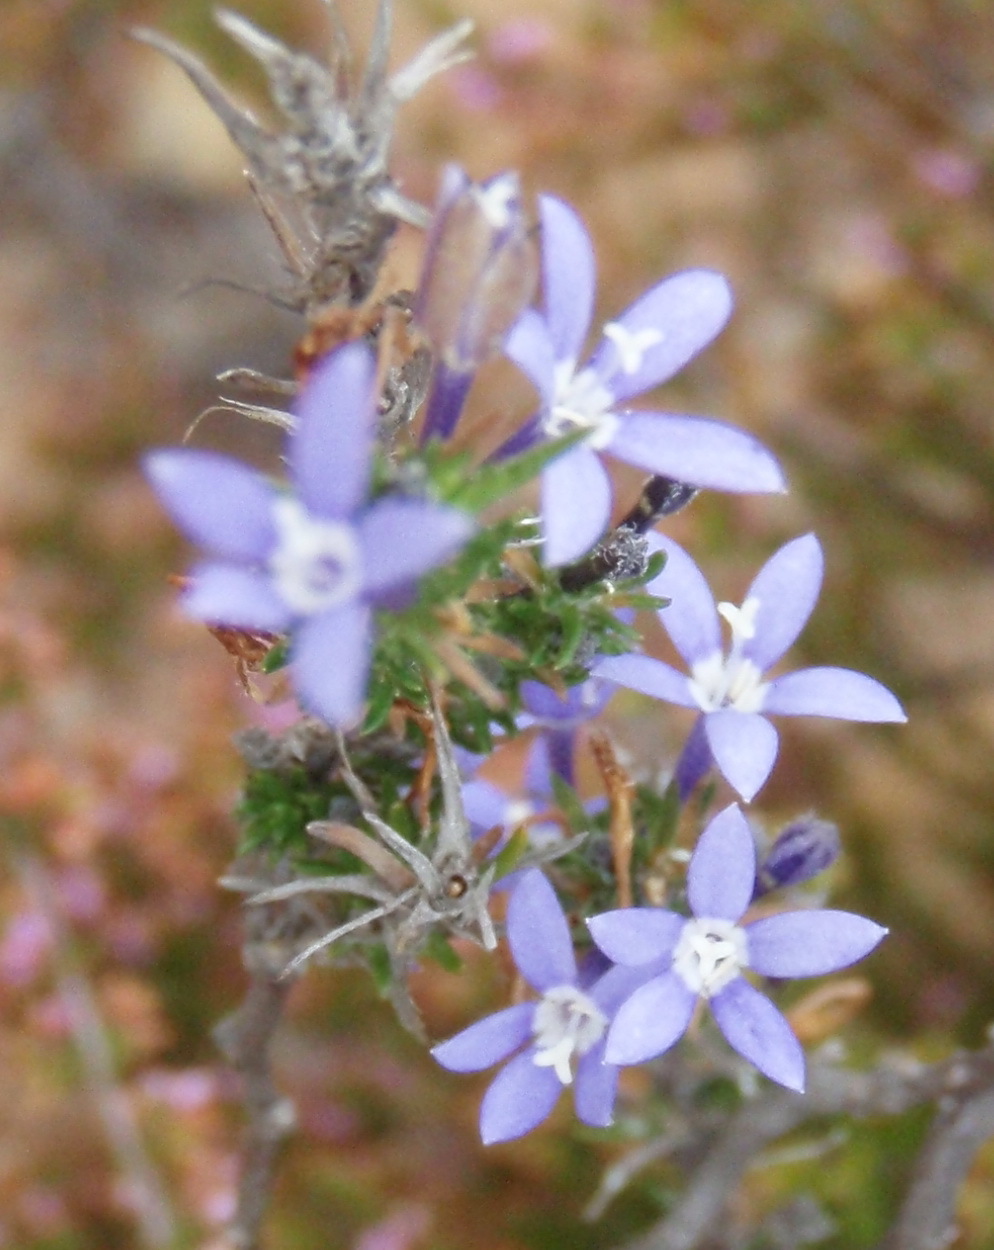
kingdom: Plantae
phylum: Tracheophyta
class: Magnoliopsida
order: Asterales
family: Campanulaceae
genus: Theilera
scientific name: Theilera guthriei
